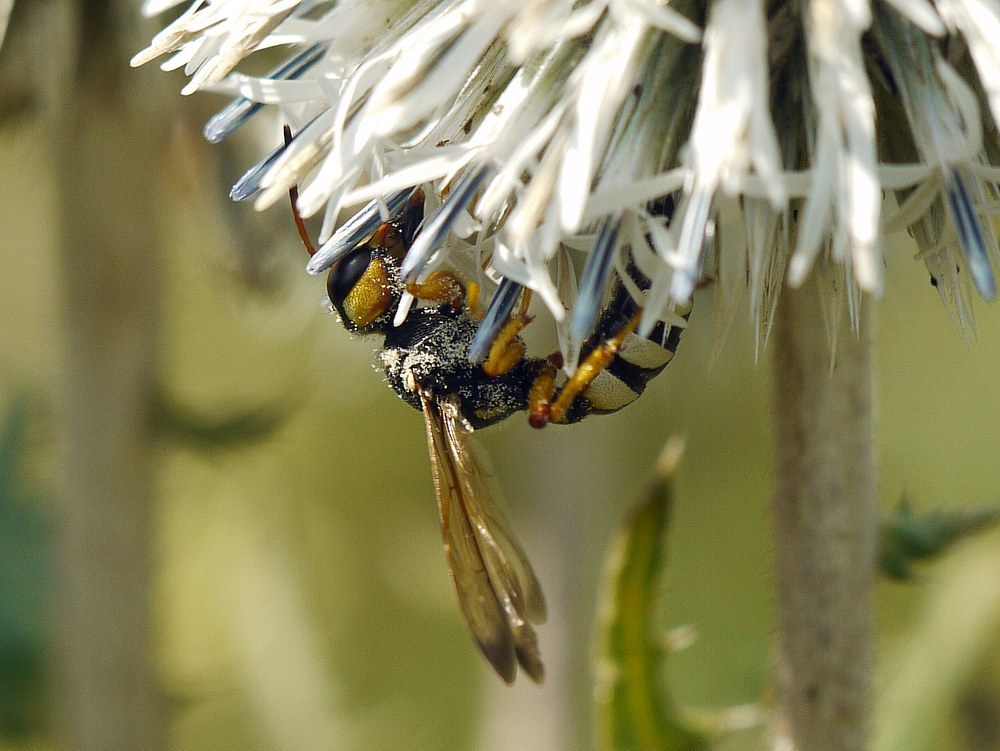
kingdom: Animalia
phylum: Arthropoda
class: Insecta
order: Hymenoptera
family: Crabronidae
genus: Cerceris
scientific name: Cerceris tuberculata
